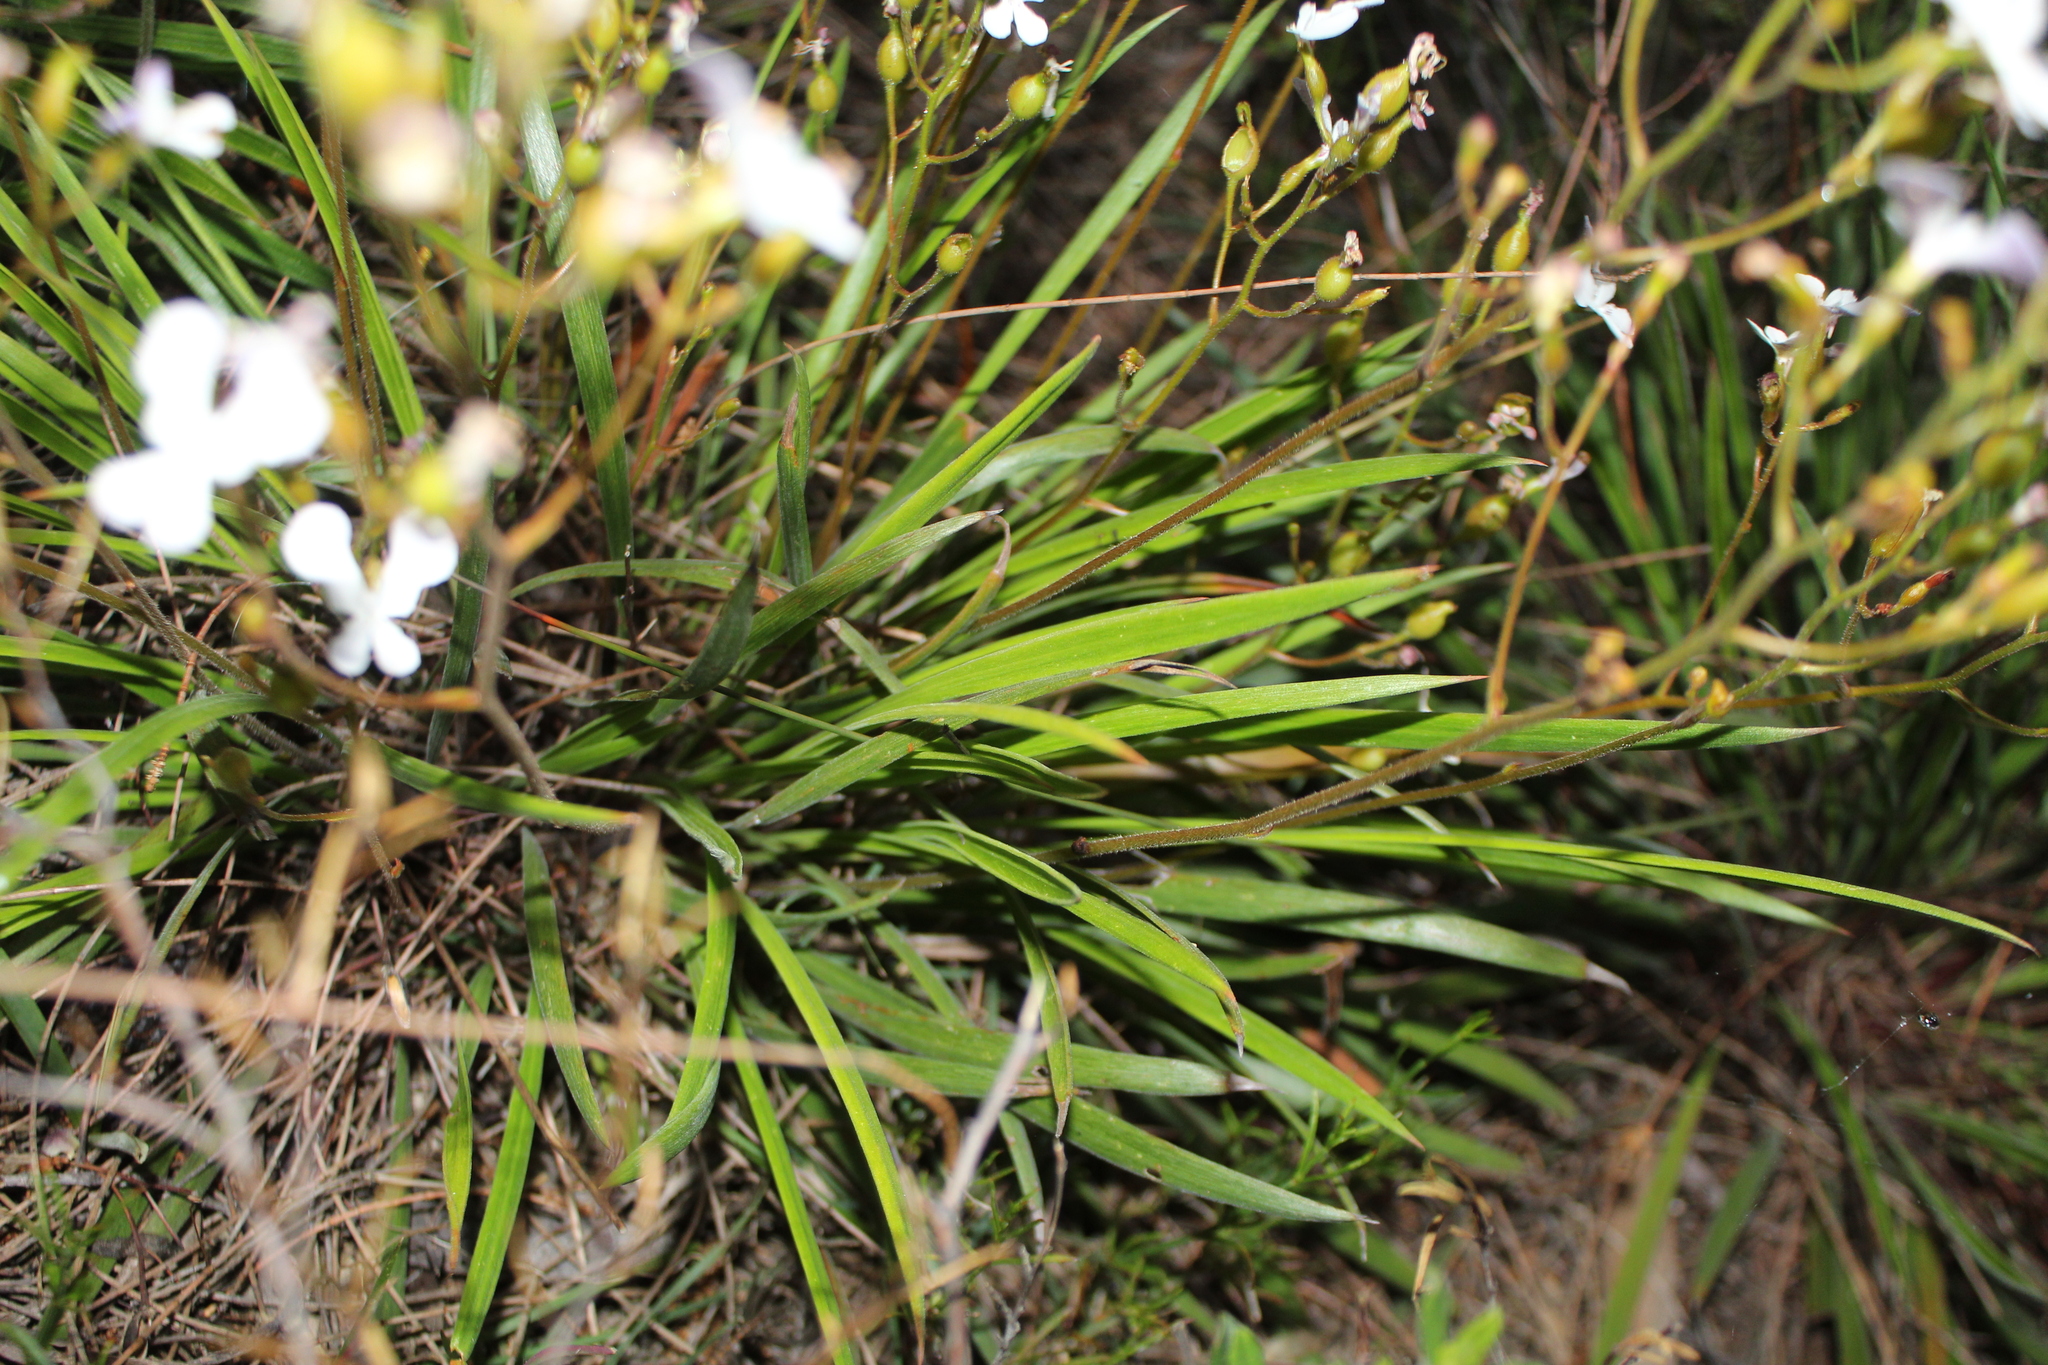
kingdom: Plantae
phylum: Tracheophyta
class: Magnoliopsida
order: Asterales
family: Stylidiaceae
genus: Stylidium
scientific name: Stylidium caricifolium
